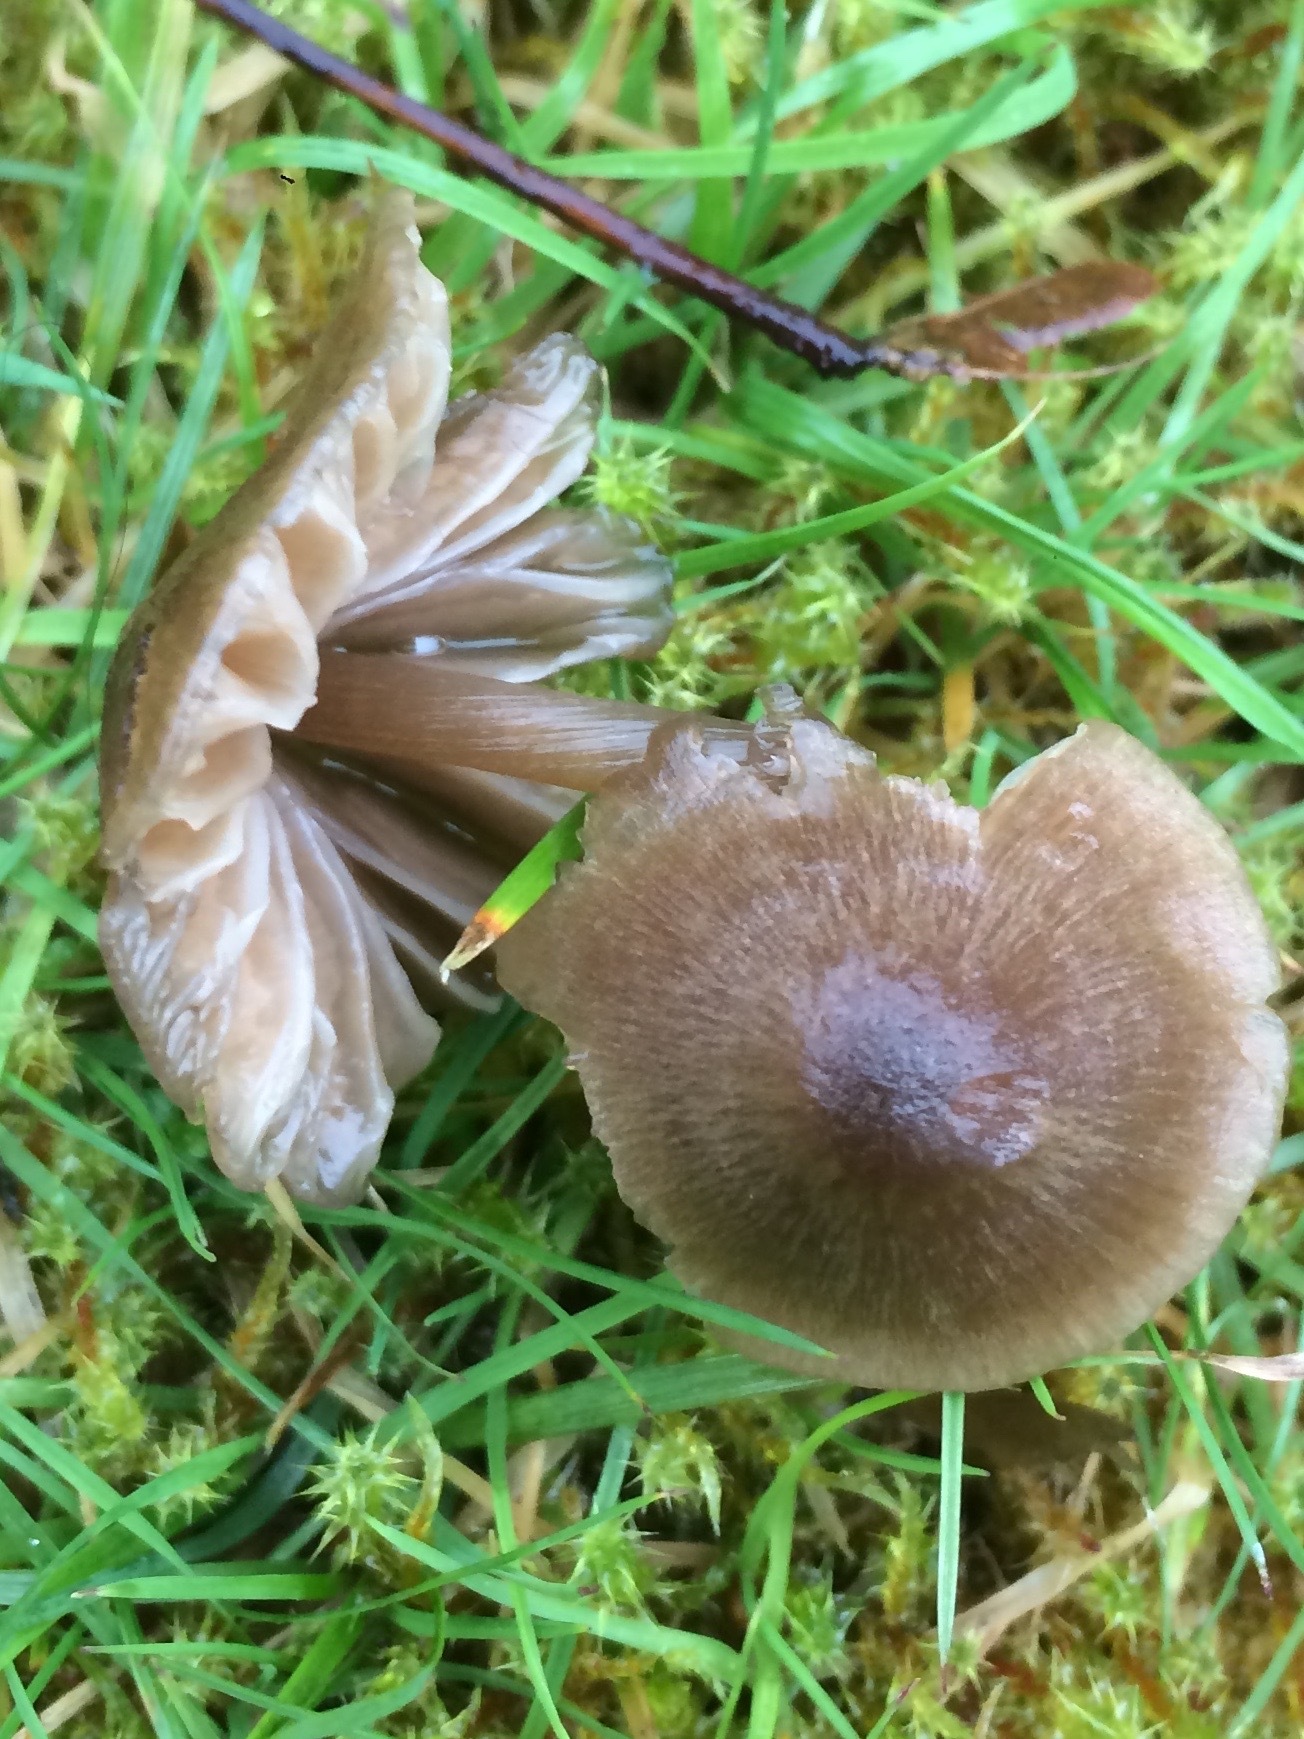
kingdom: Fungi
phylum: Basidiomycota
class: Agaricomycetes
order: Agaricales
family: Entolomataceae
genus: Entoloma
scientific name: Entoloma conferendum
